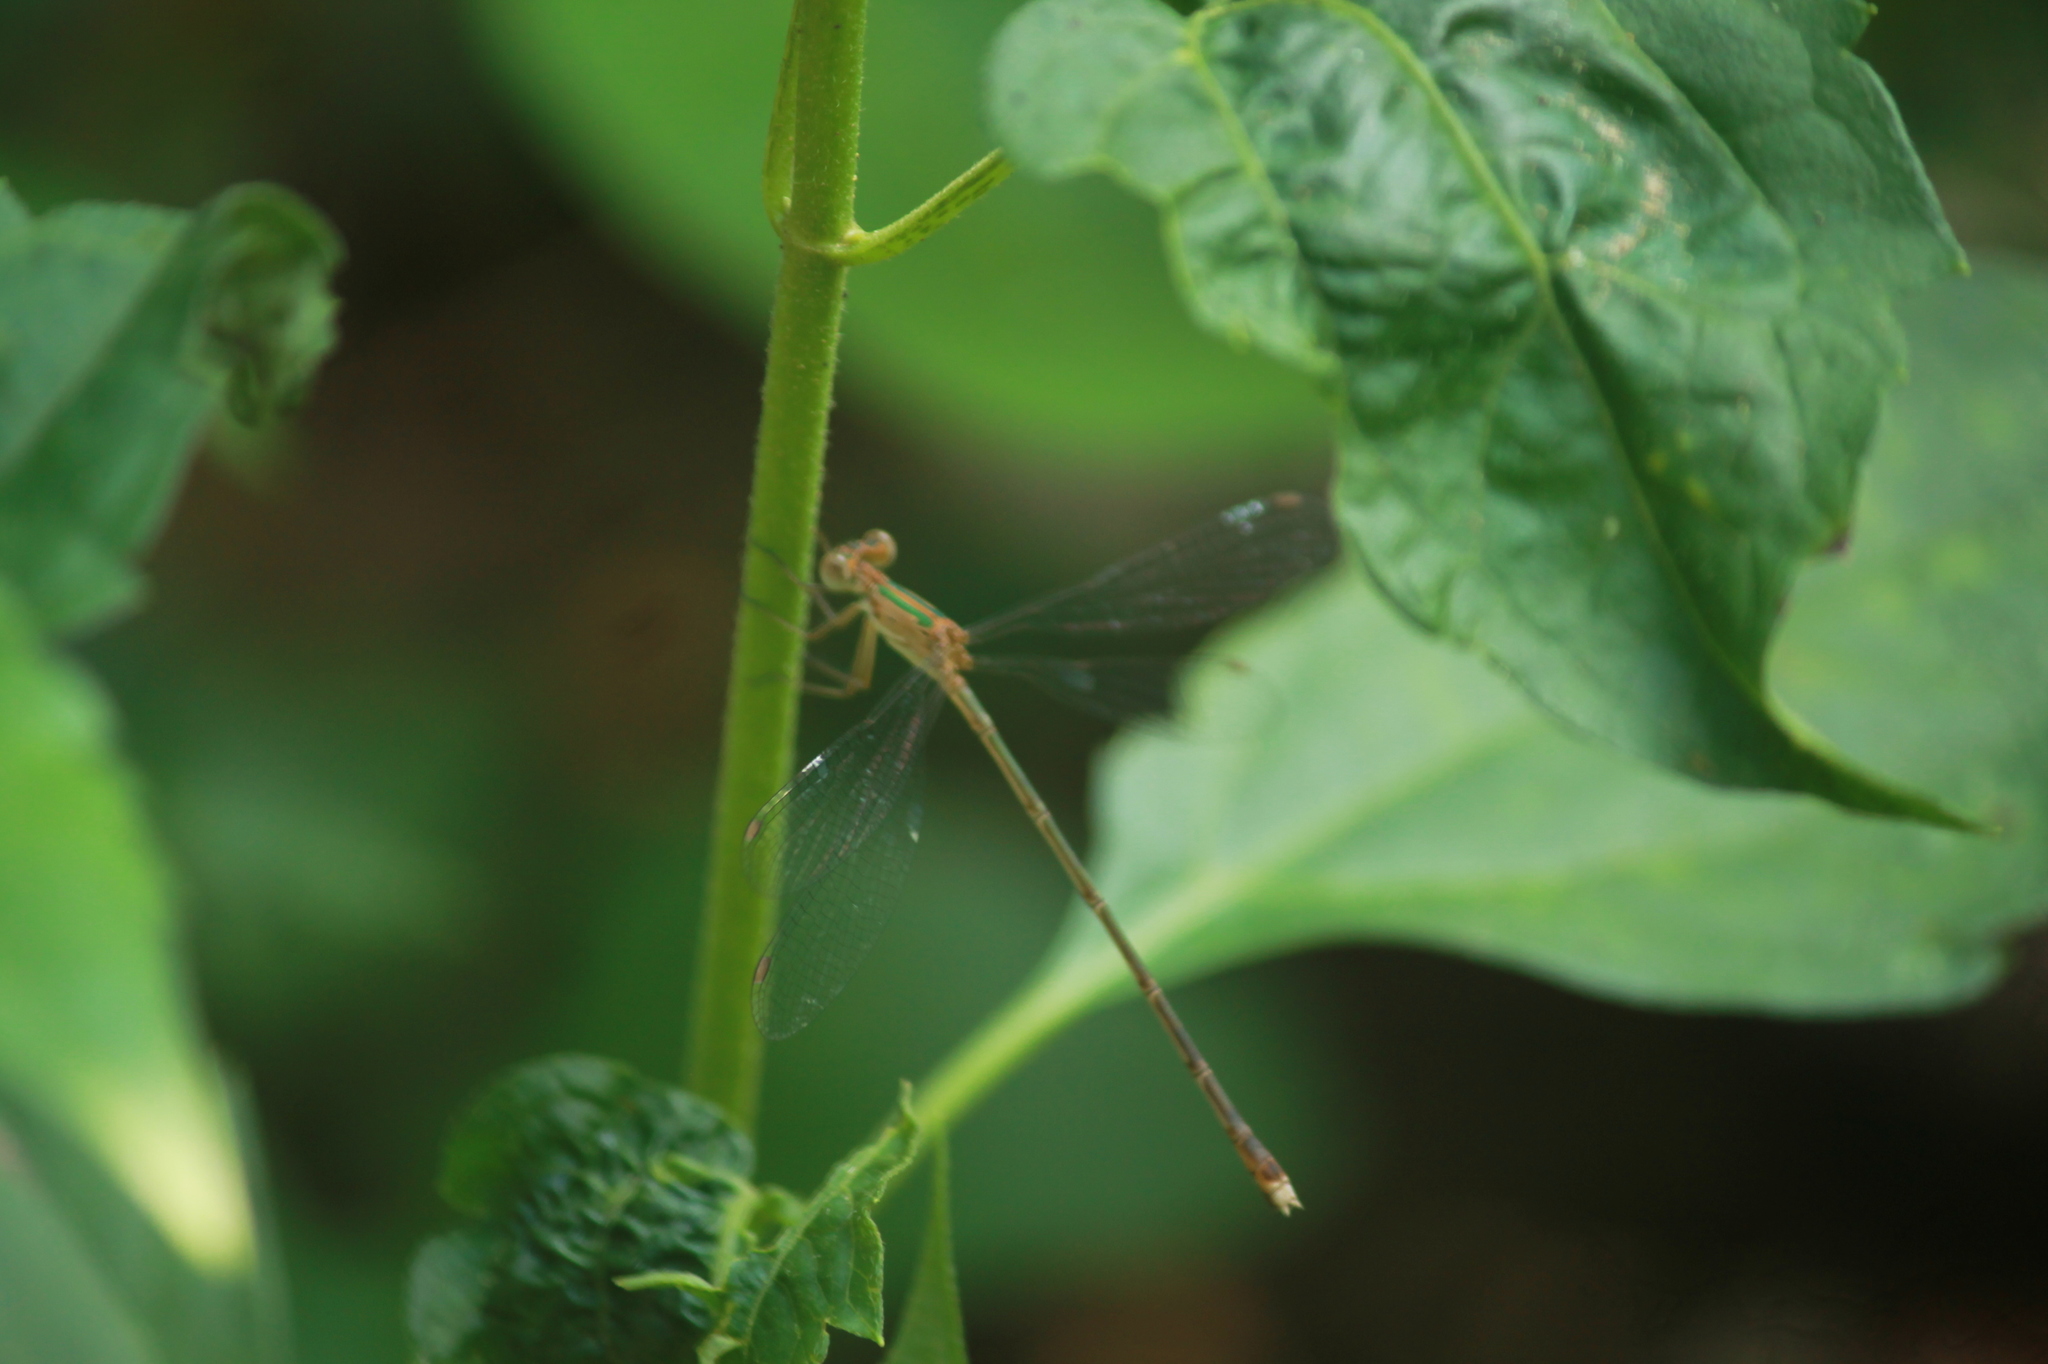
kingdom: Animalia
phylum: Arthropoda
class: Insecta
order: Odonata
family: Lestidae
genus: Lestes
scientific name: Lestes elatus
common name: Emerald spreadwing
